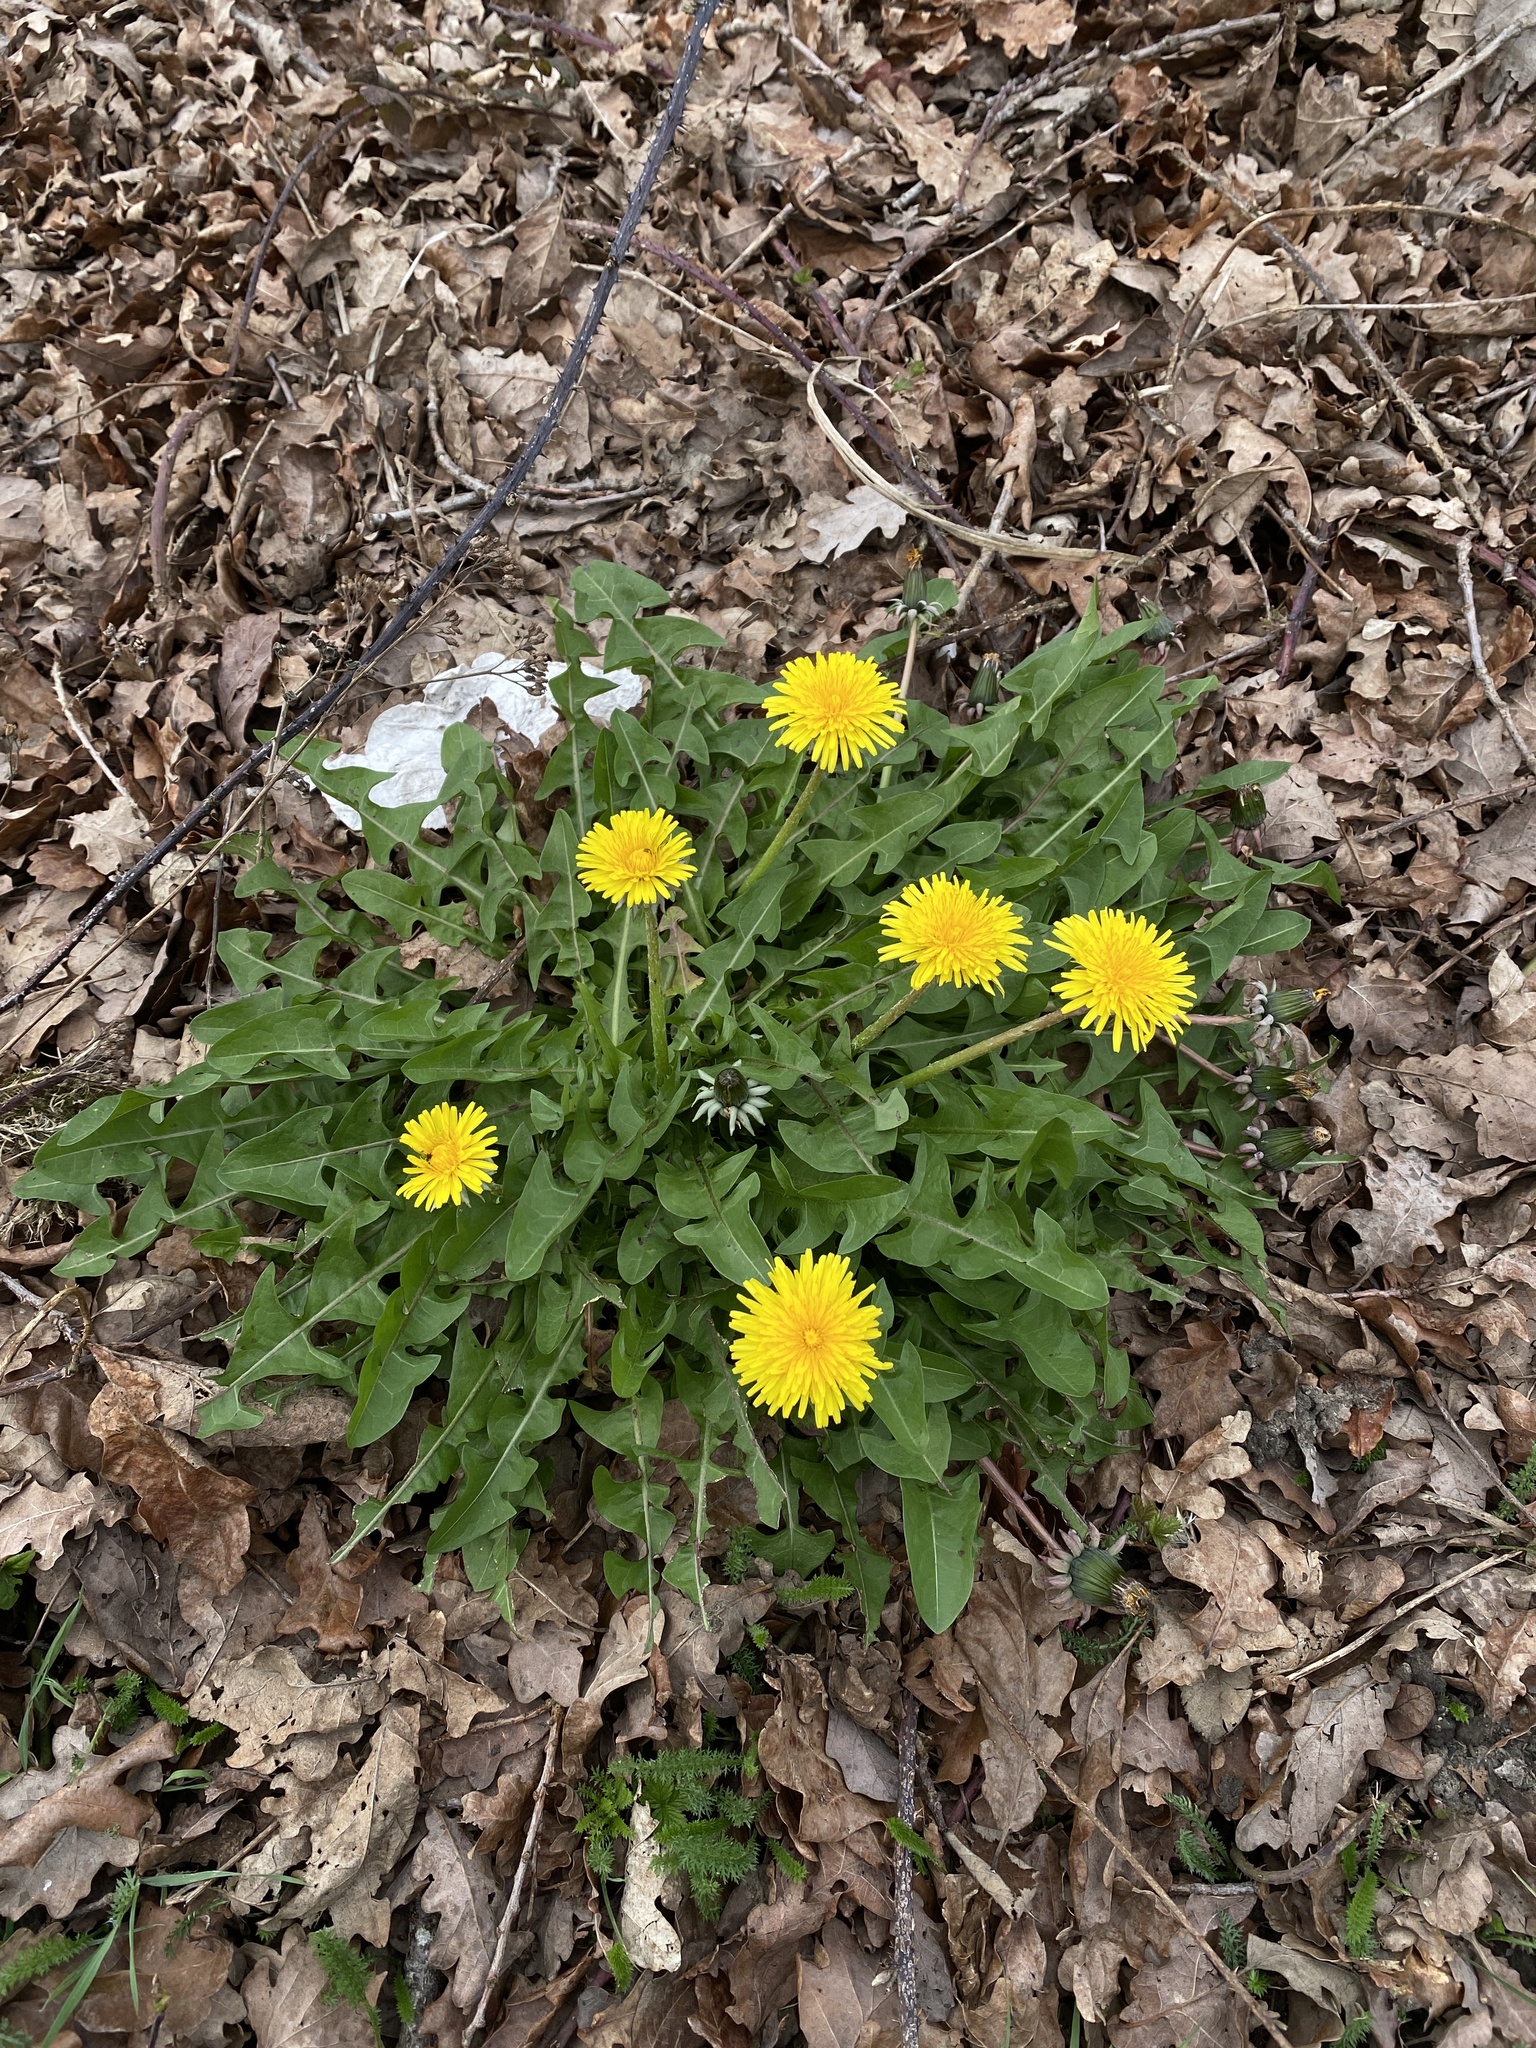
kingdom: Plantae
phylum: Tracheophyta
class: Magnoliopsida
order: Asterales
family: Asteraceae
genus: Taraxacum
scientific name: Taraxacum officinale
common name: Common dandelion
